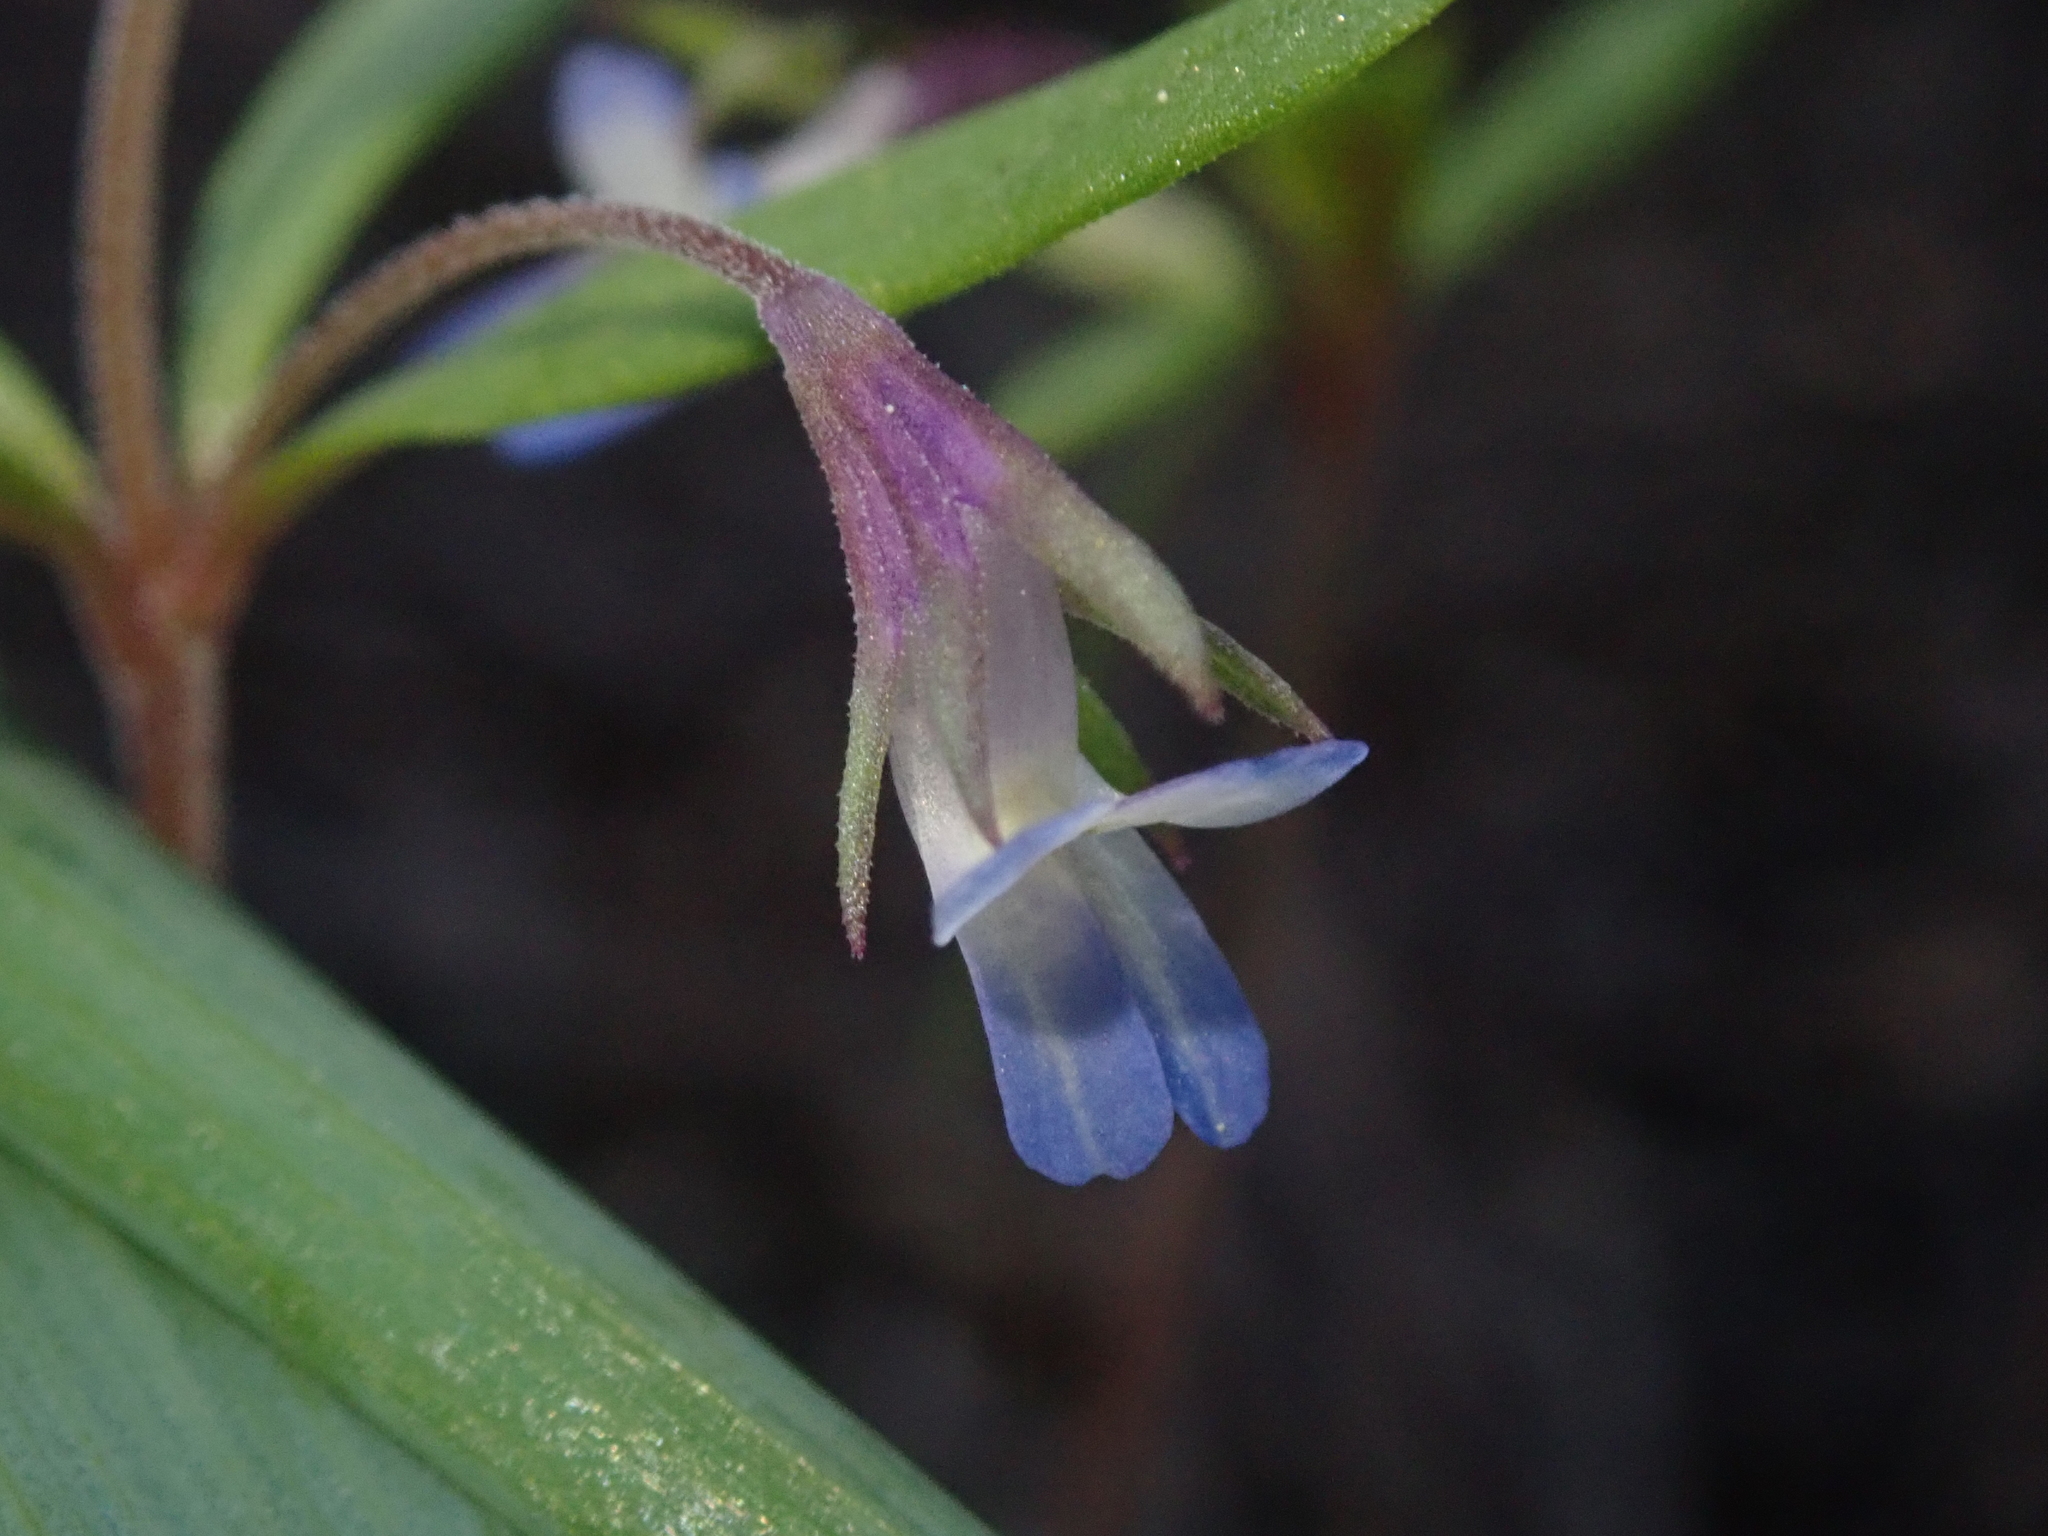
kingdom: Plantae
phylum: Tracheophyta
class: Magnoliopsida
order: Lamiales
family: Plantaginaceae
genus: Collinsia
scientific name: Collinsia parviflora
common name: Blue-lips
